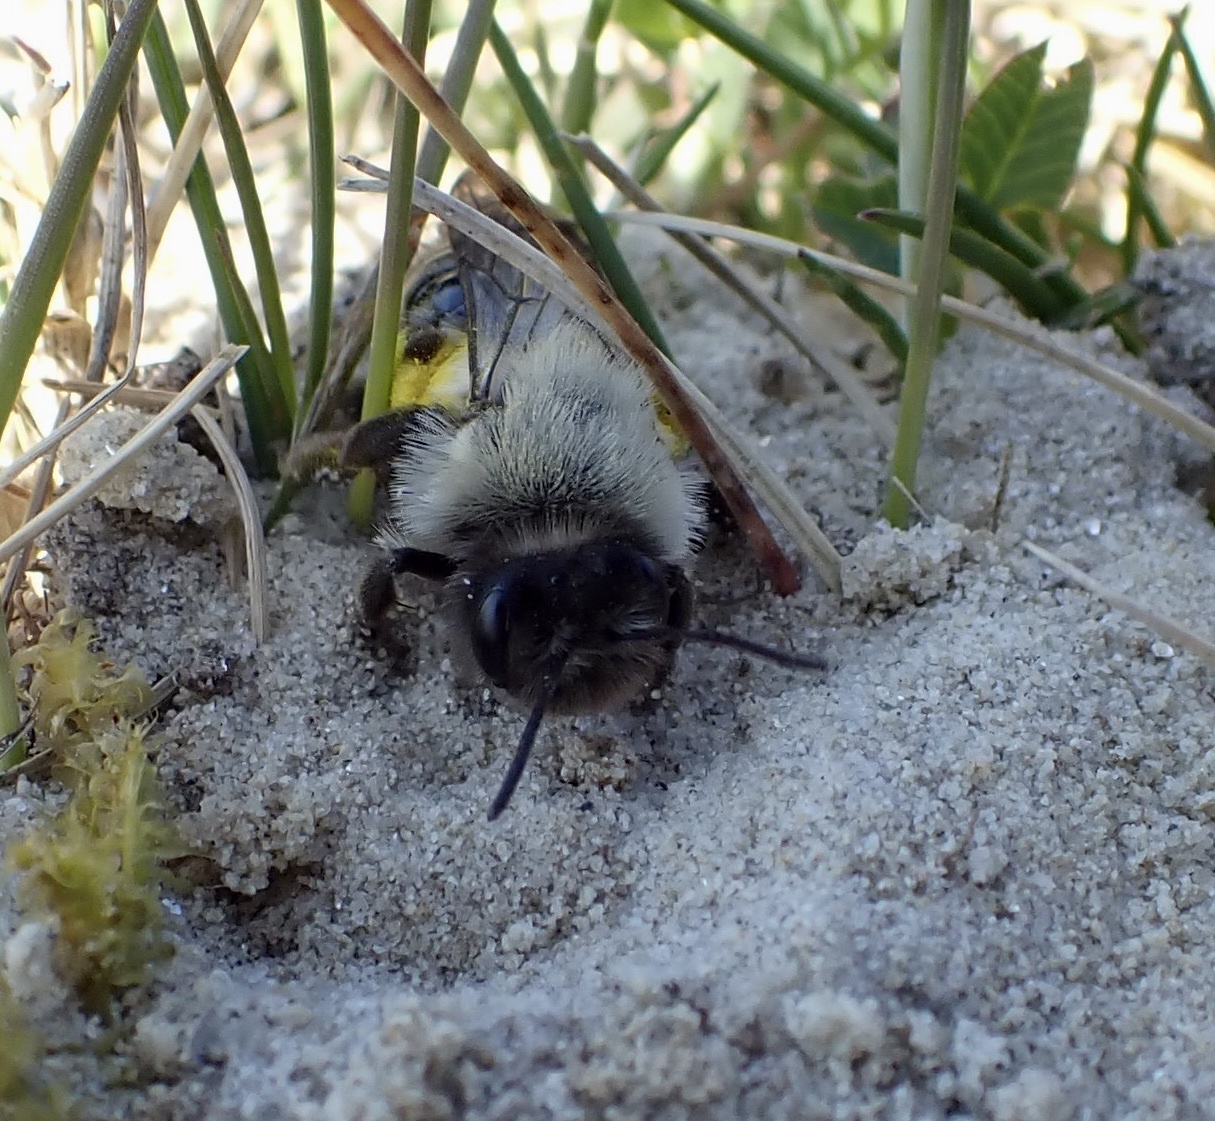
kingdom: Animalia
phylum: Arthropoda
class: Insecta
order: Hymenoptera
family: Andrenidae
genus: Andrena
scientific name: Andrena vaga
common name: Grey-backed mining bee
